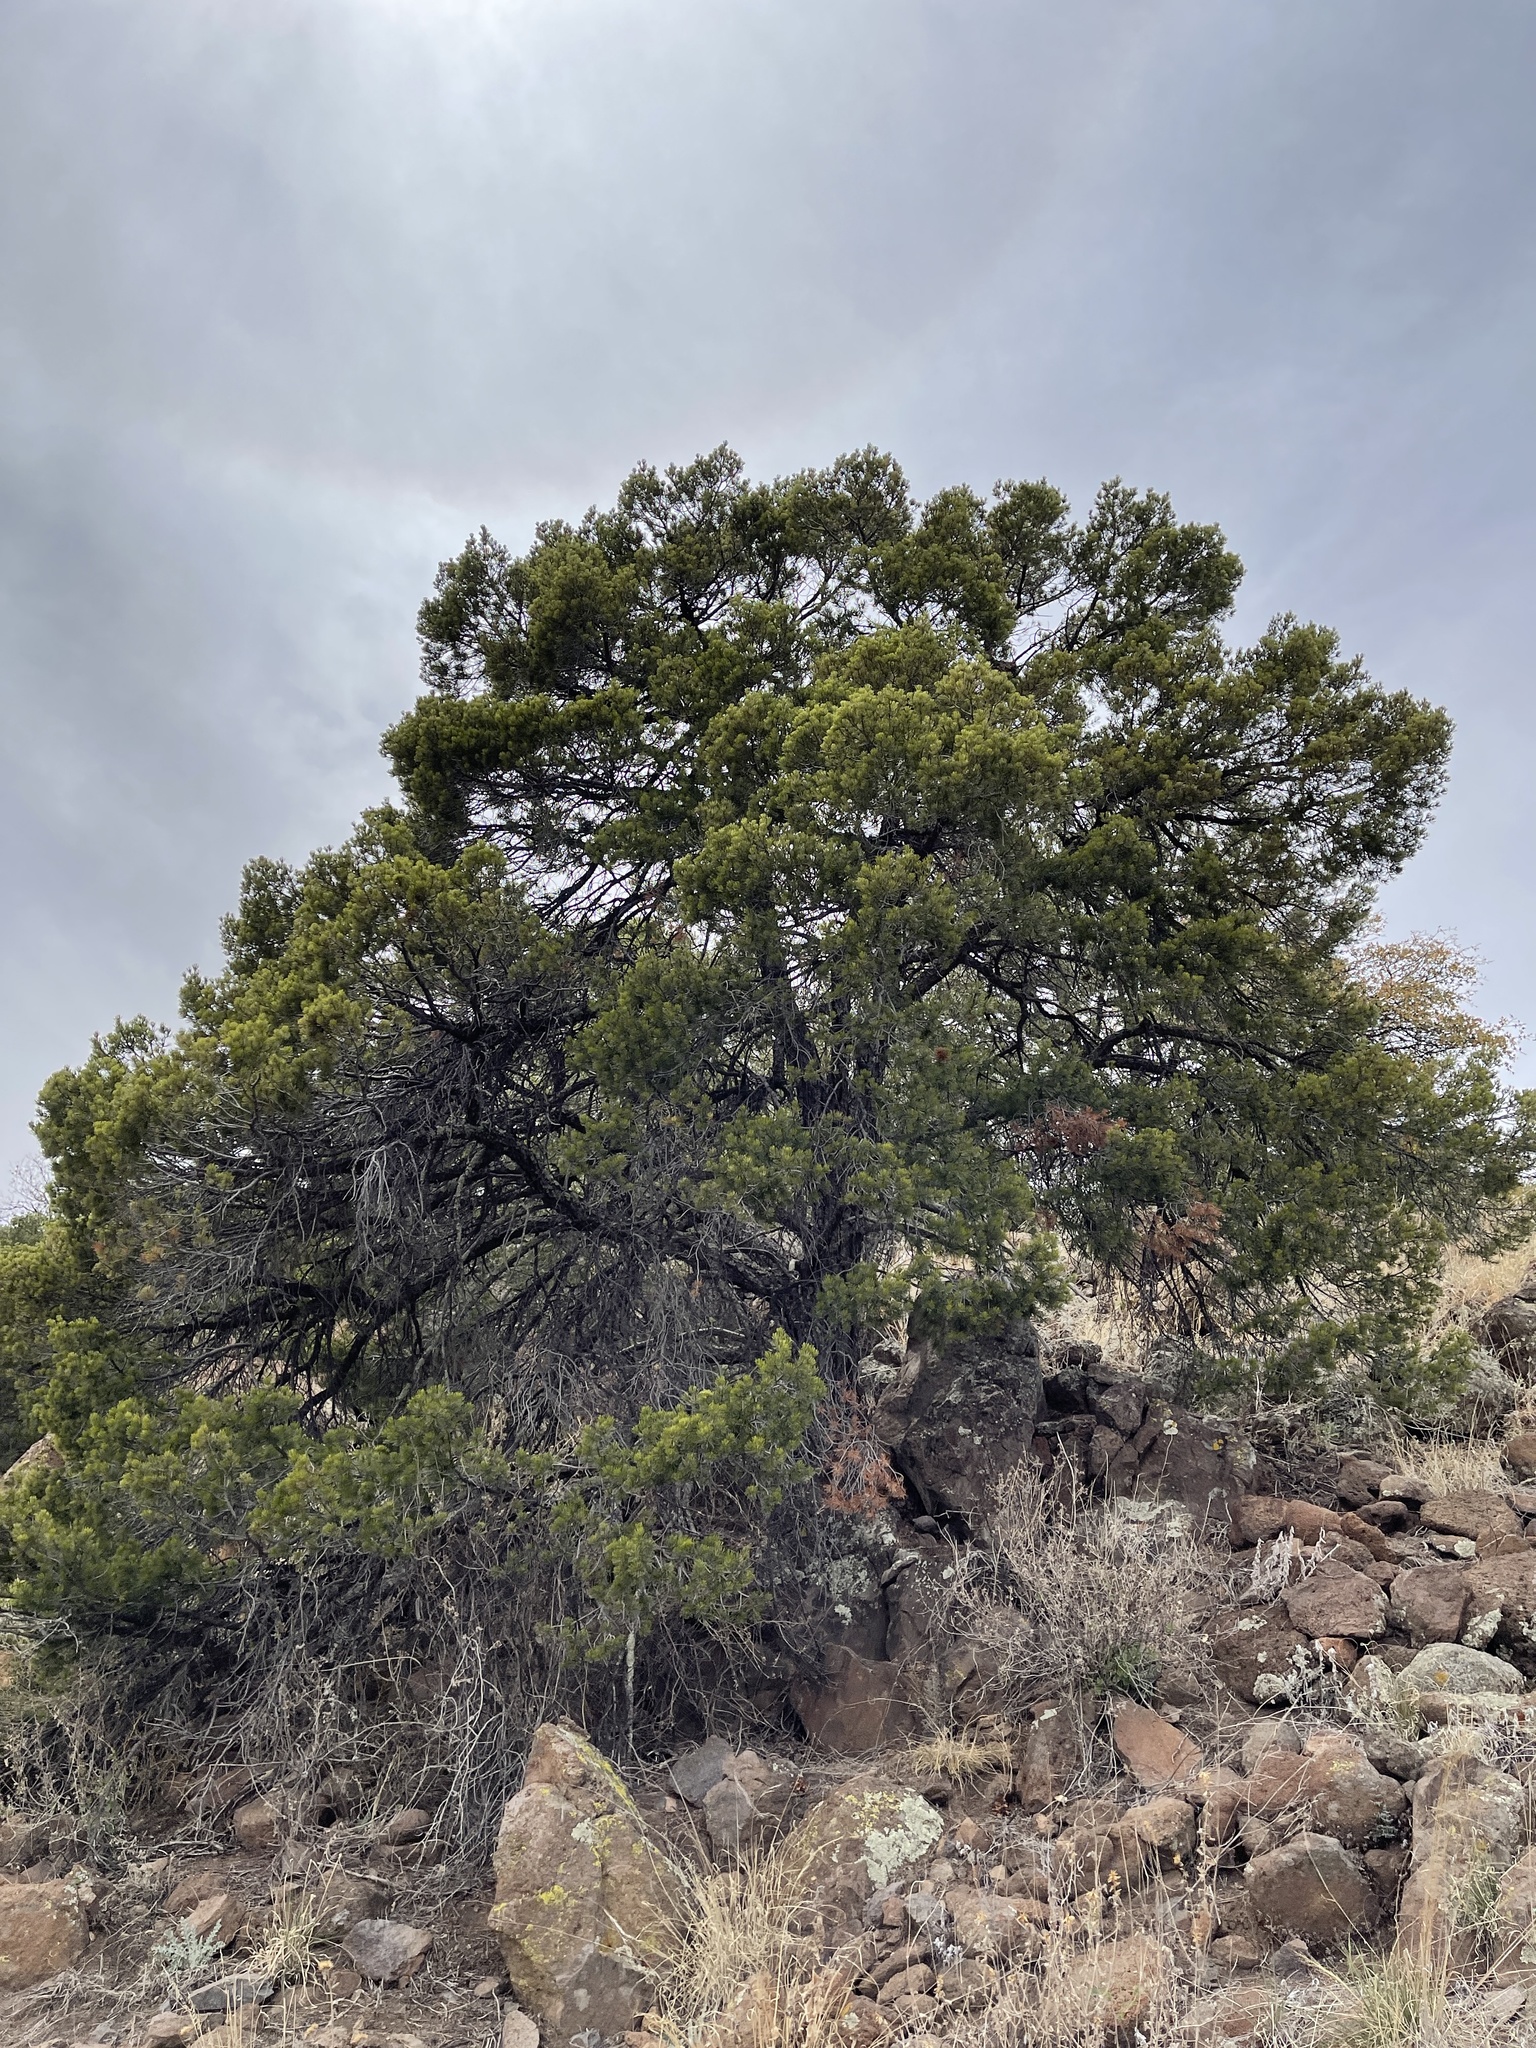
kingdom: Plantae
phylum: Tracheophyta
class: Pinopsida
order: Pinales
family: Pinaceae
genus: Pinus
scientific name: Pinus edulis
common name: Colorado pinyon
